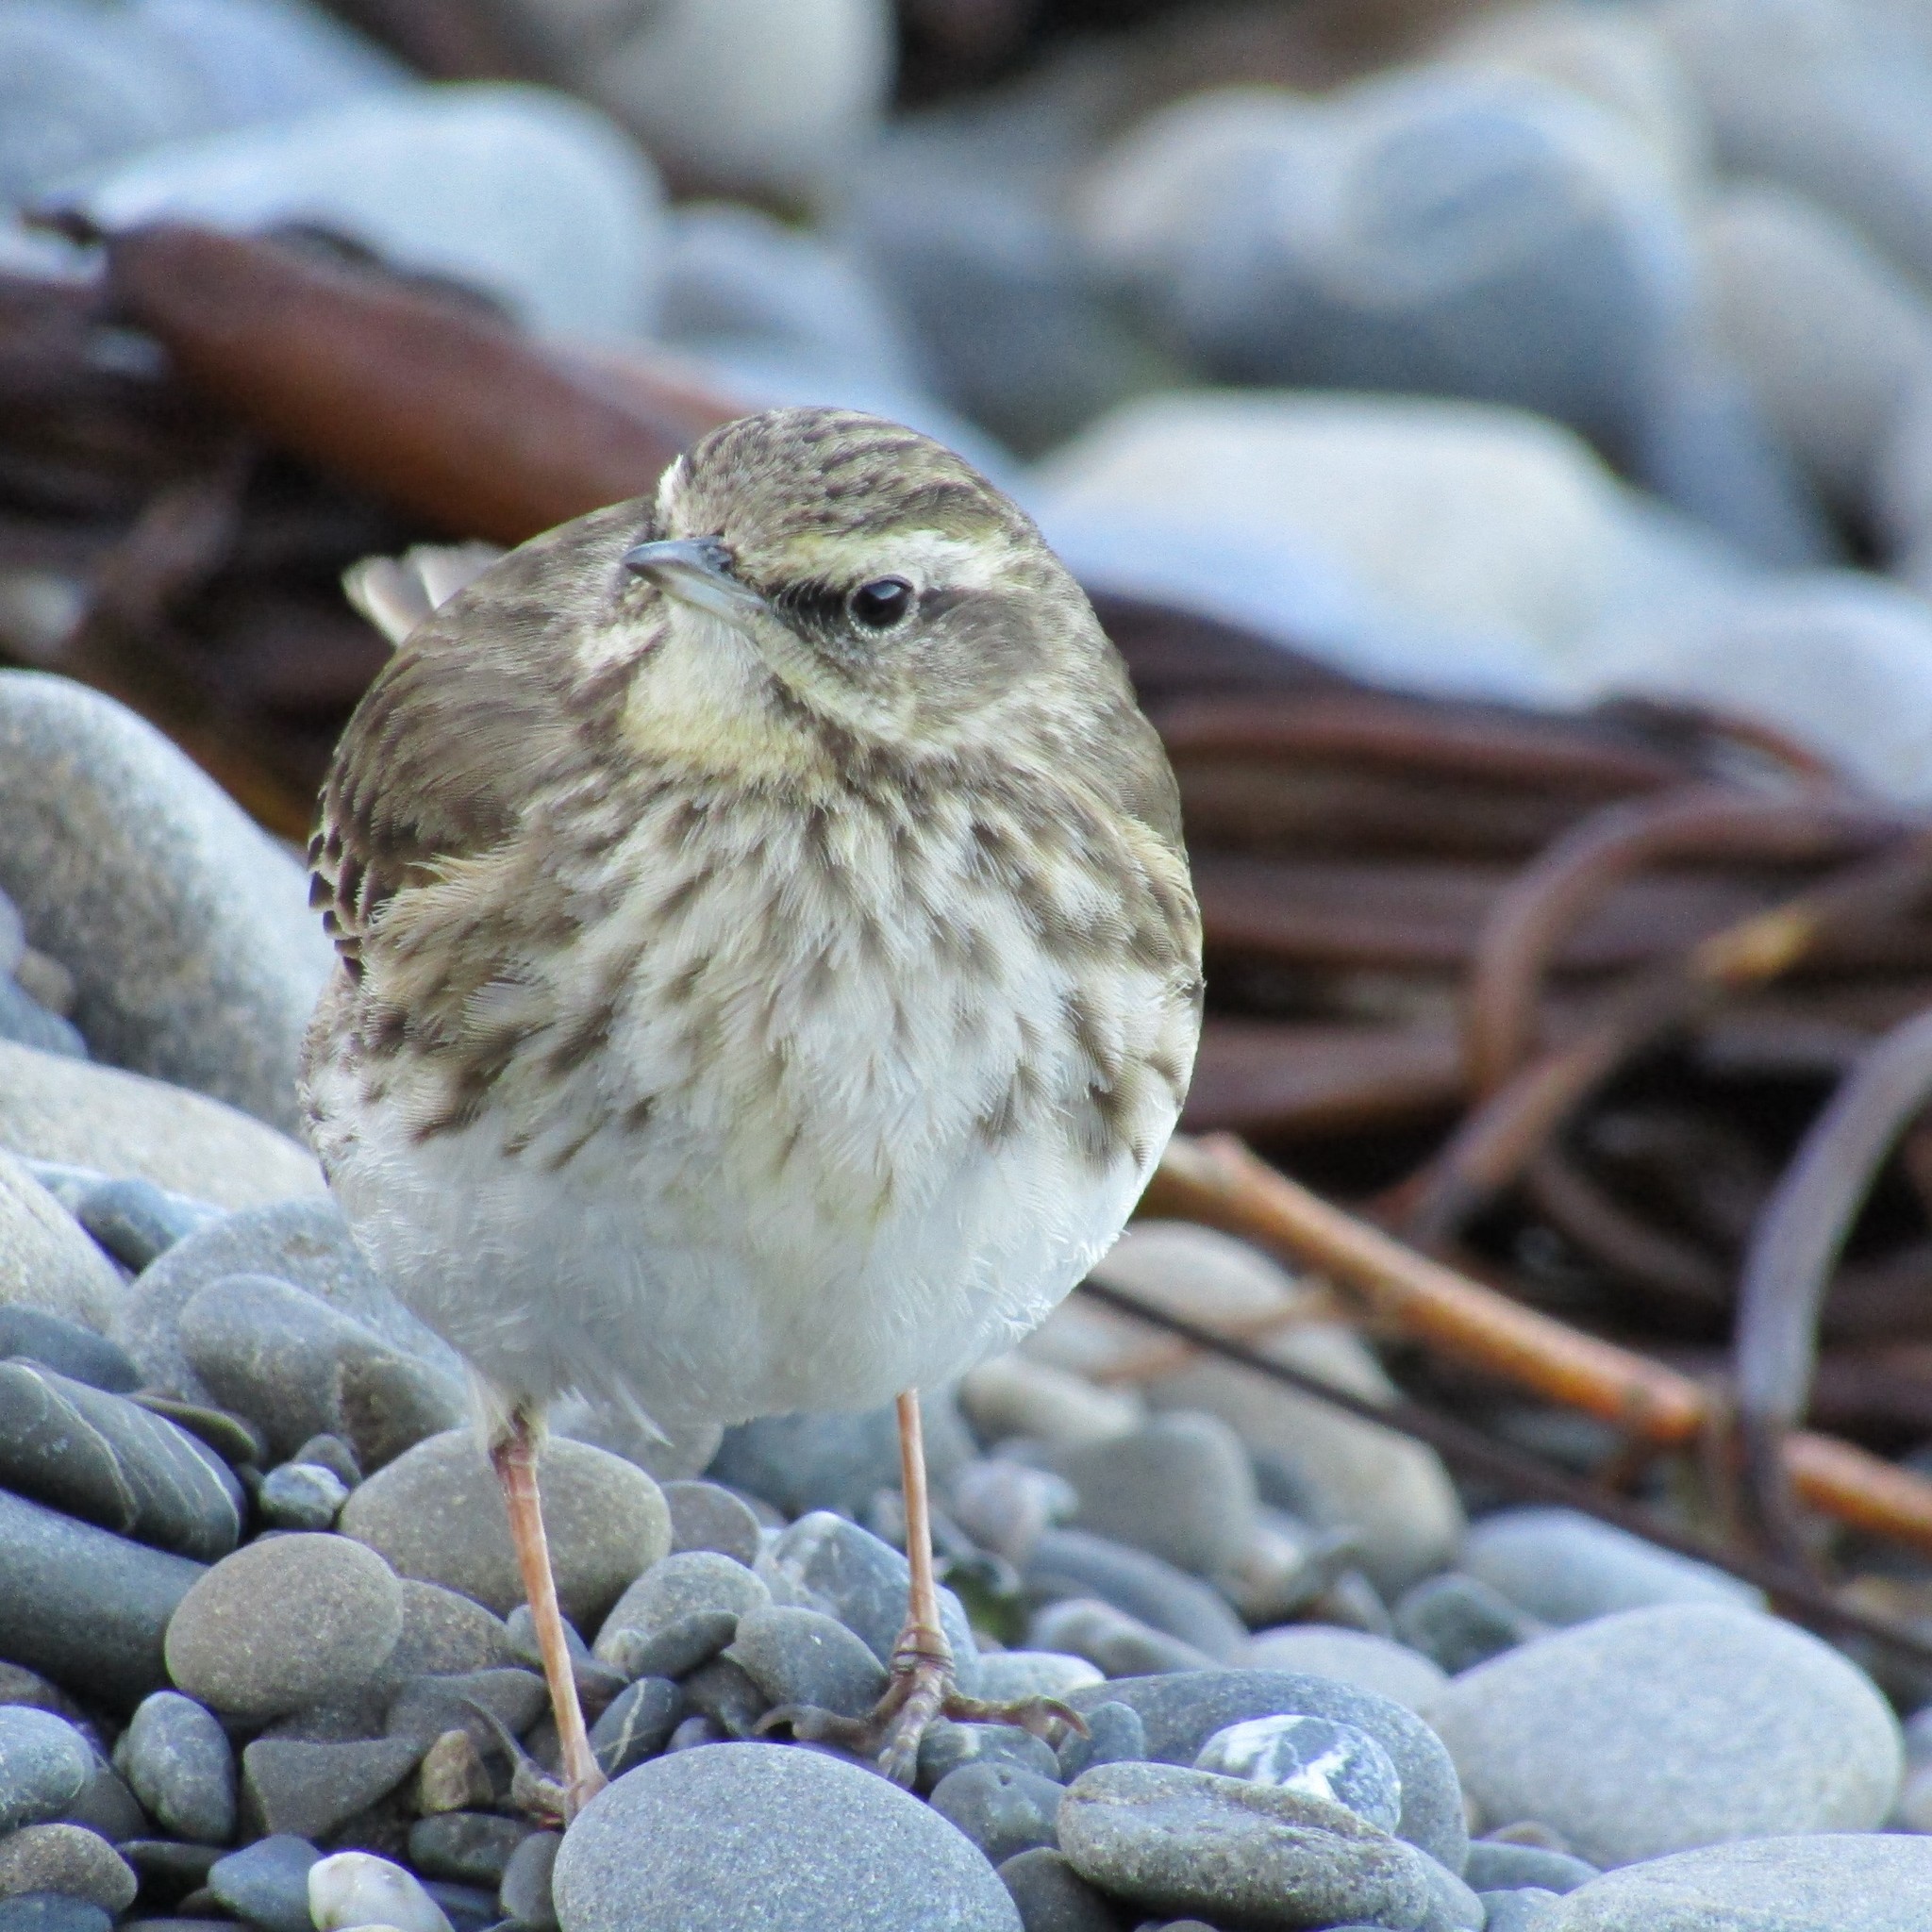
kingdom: Animalia
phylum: Chordata
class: Aves
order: Passeriformes
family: Motacillidae
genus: Anthus
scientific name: Anthus novaeseelandiae
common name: New zealand pipit
